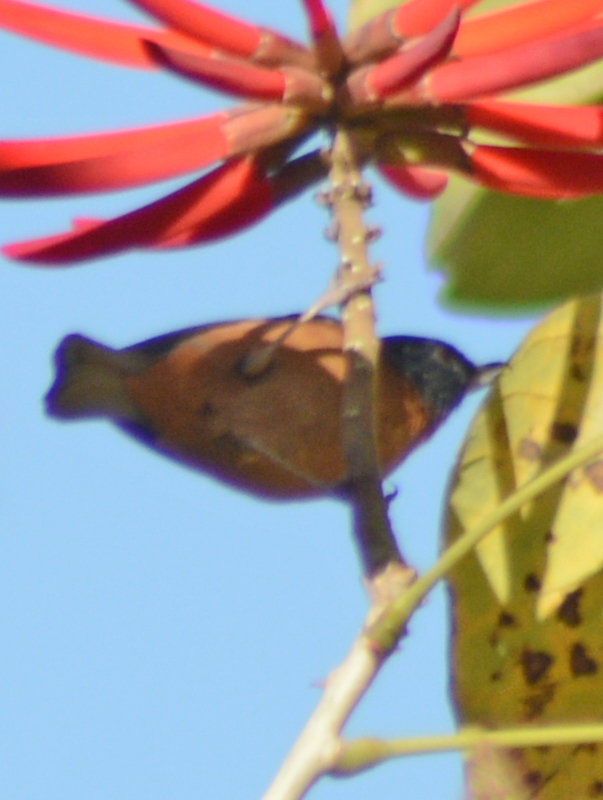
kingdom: Animalia
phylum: Chordata
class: Aves
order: Passeriformes
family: Thraupidae
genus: Diglossa
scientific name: Diglossa baritula
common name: Cinnamon-bellied flowerpiercer
